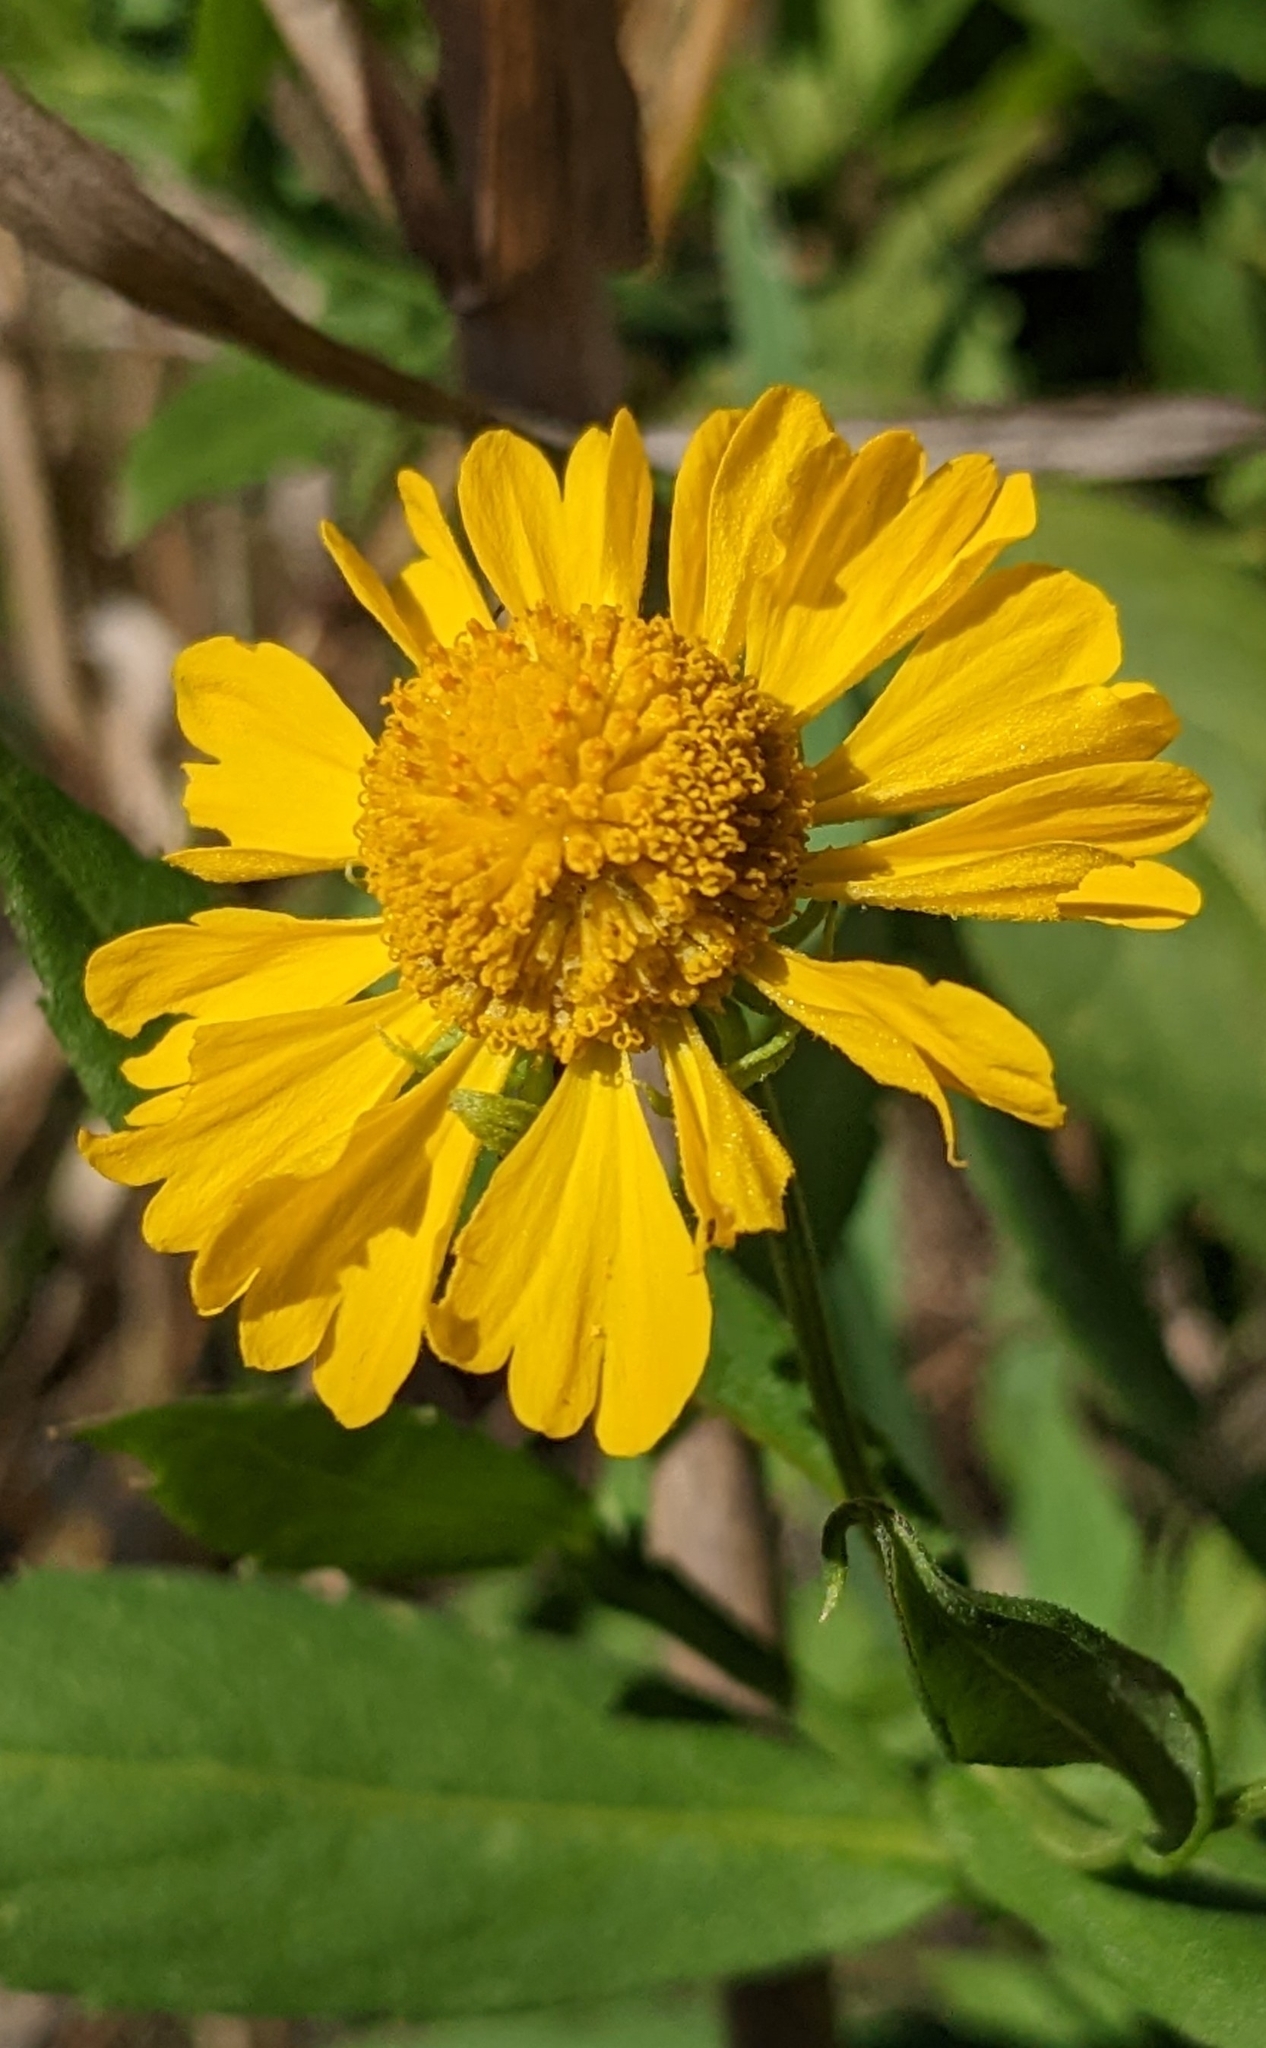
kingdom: Plantae
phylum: Tracheophyta
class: Magnoliopsida
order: Asterales
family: Asteraceae
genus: Helenium
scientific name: Helenium autumnale
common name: Sneezeweed
